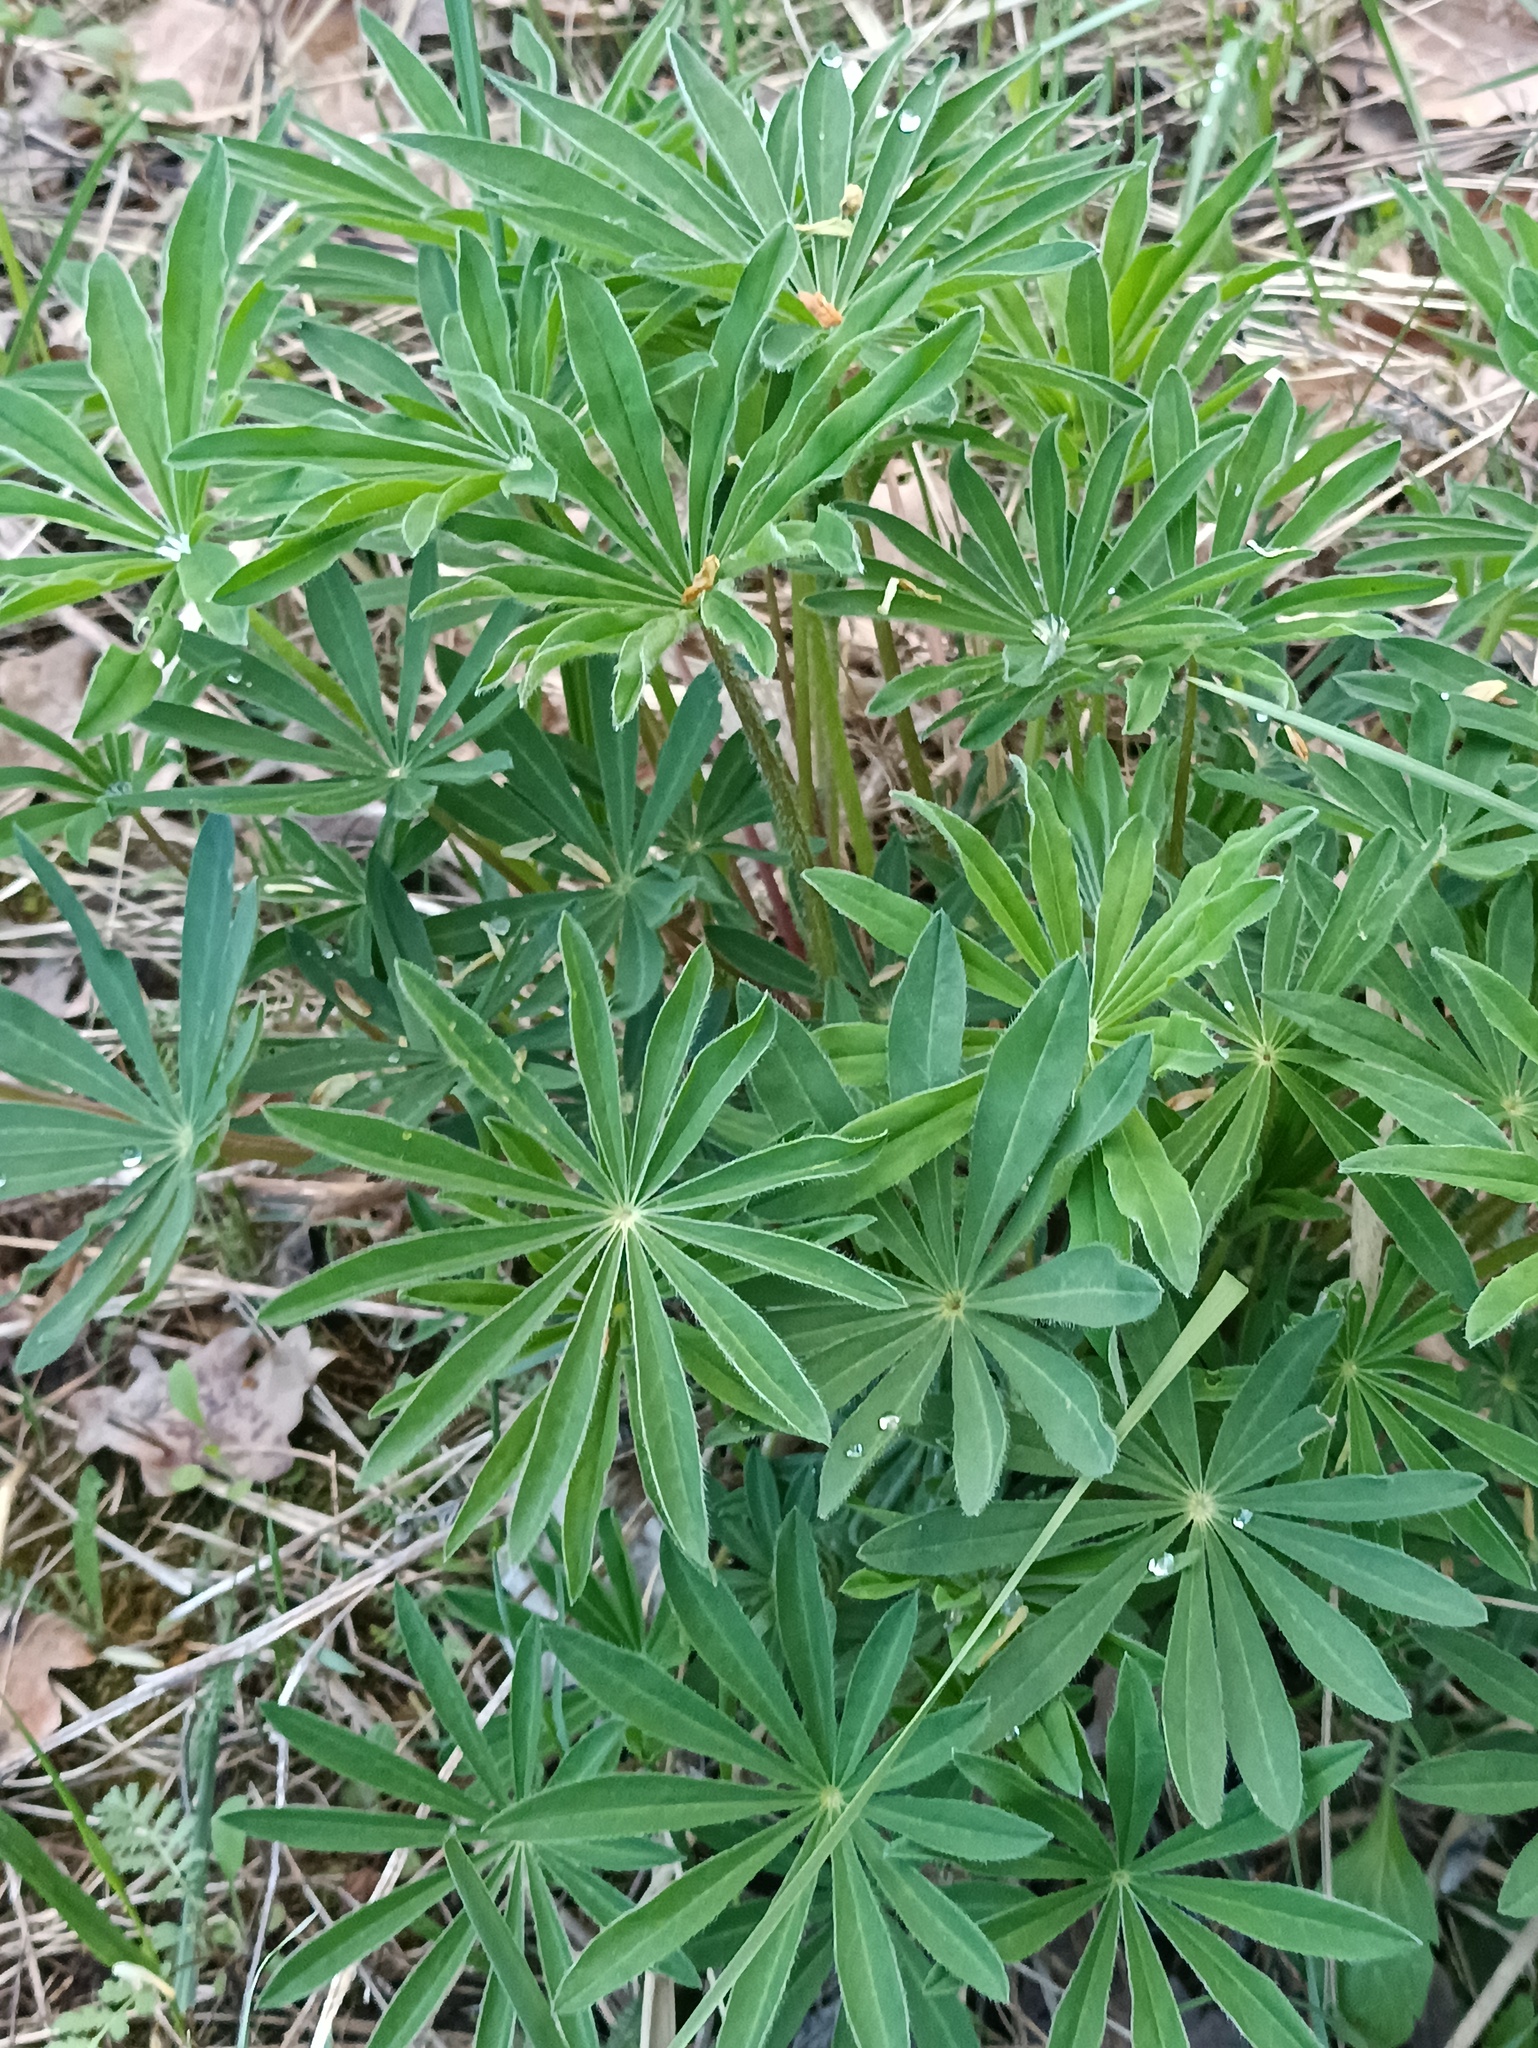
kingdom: Plantae
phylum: Tracheophyta
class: Magnoliopsida
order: Fabales
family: Fabaceae
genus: Lupinus
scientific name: Lupinus polyphyllus
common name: Garden lupin
